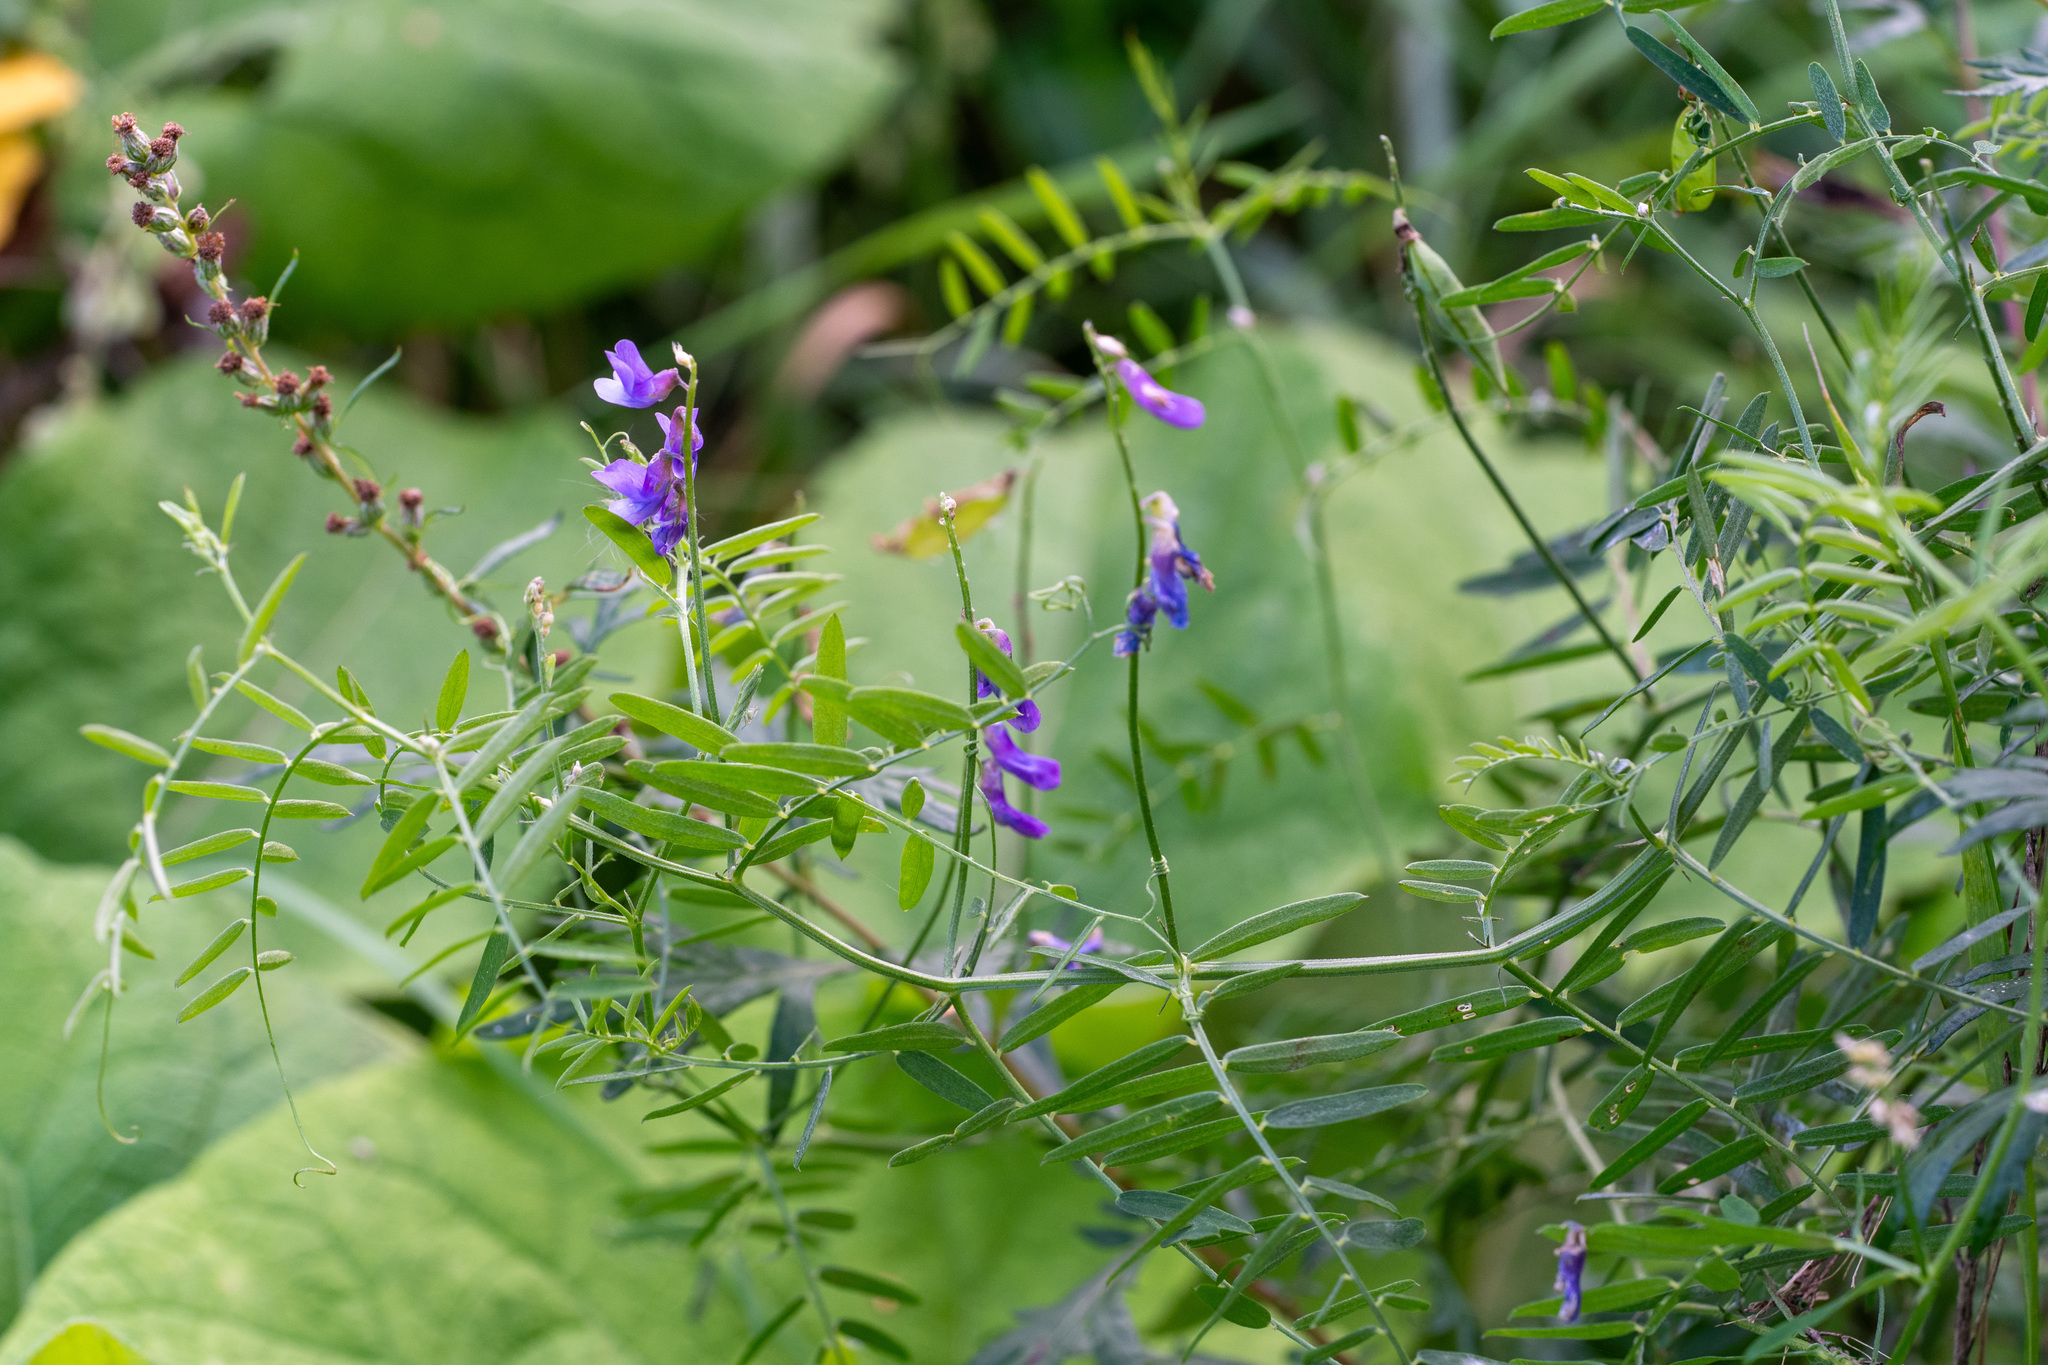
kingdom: Plantae
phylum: Tracheophyta
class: Magnoliopsida
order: Fabales
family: Fabaceae
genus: Vicia
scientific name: Vicia cracca
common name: Bird vetch
